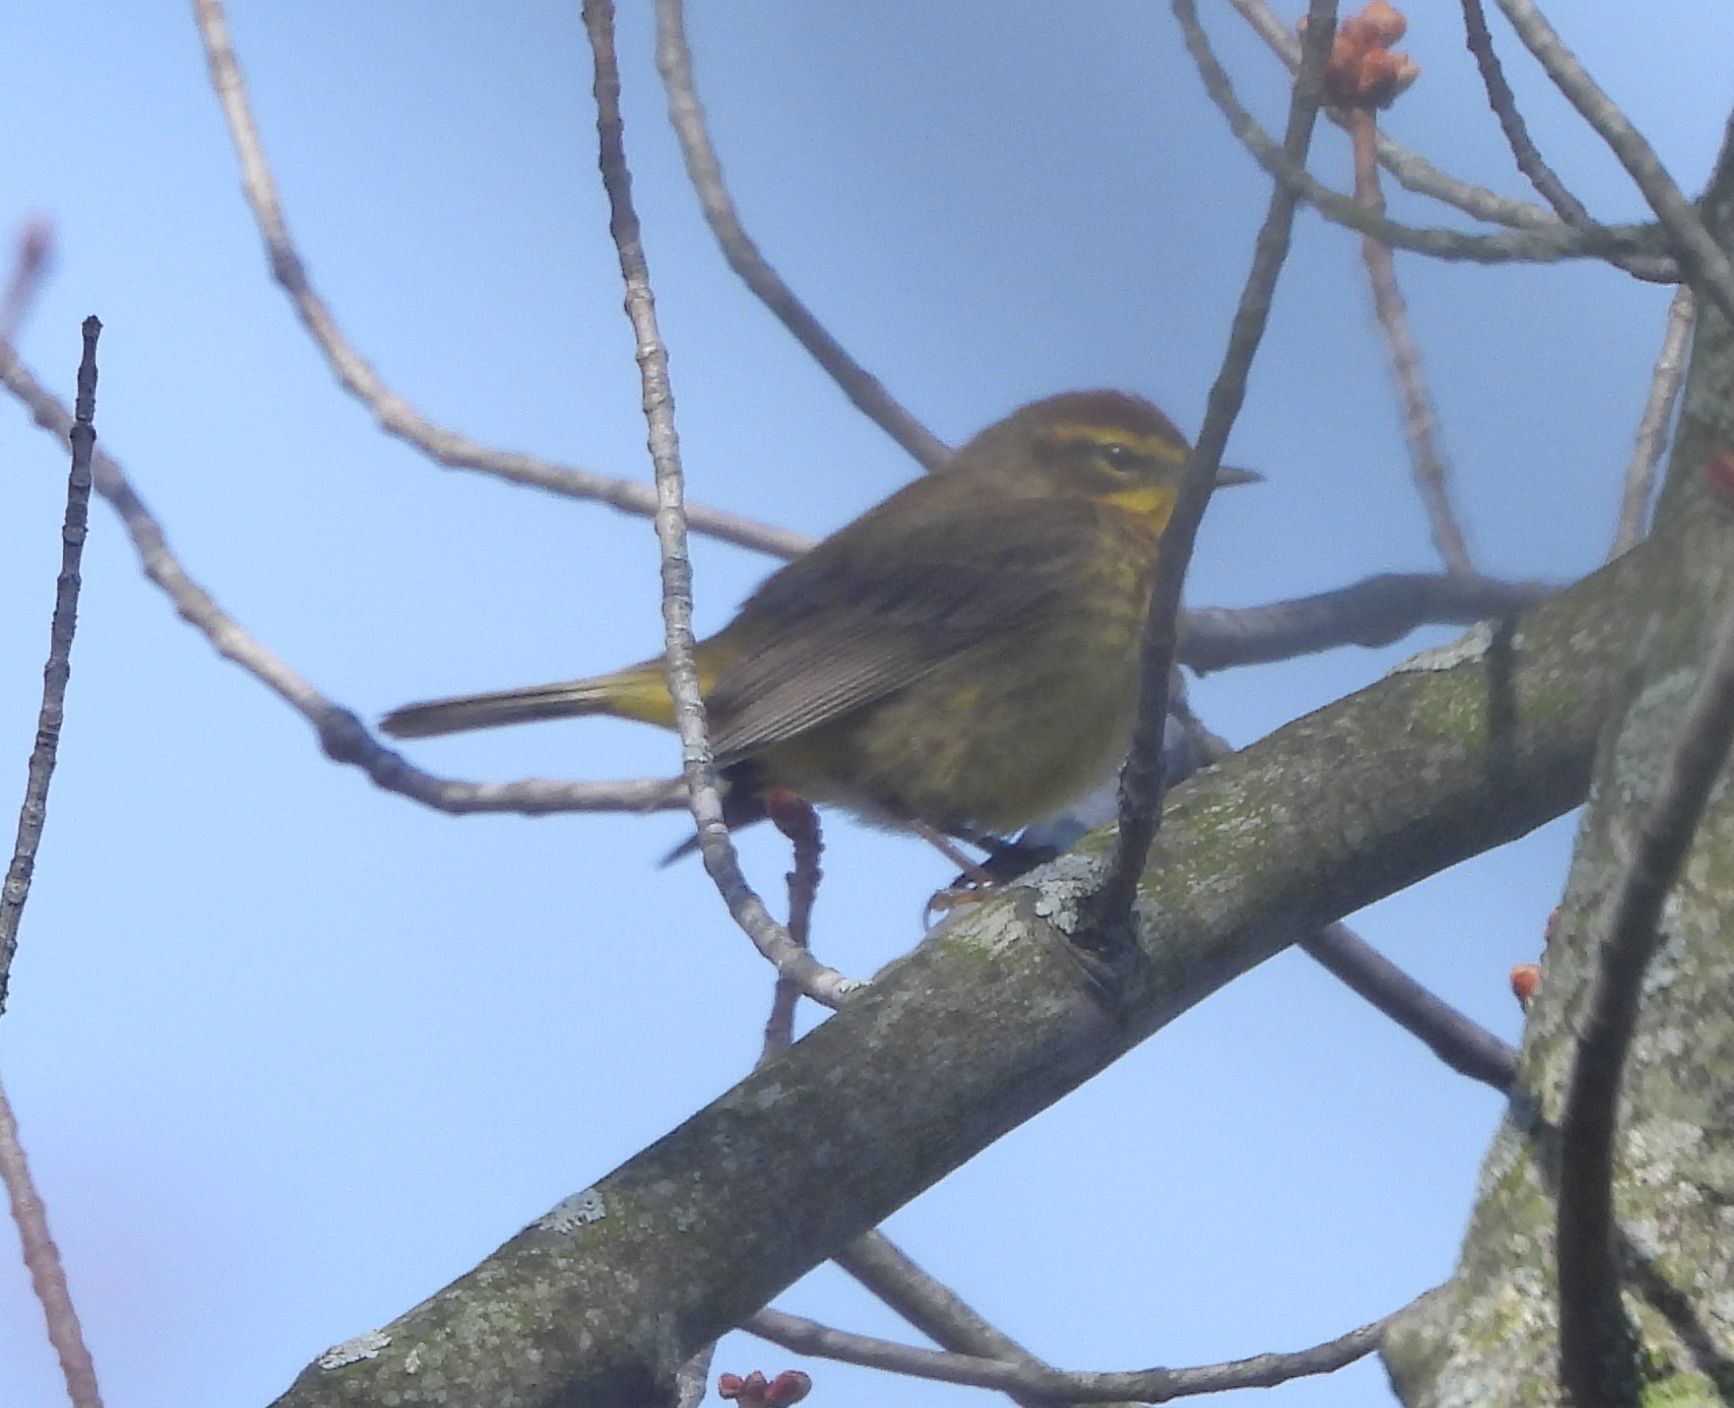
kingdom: Animalia
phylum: Chordata
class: Aves
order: Passeriformes
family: Parulidae
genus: Setophaga
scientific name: Setophaga palmarum
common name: Palm warbler
